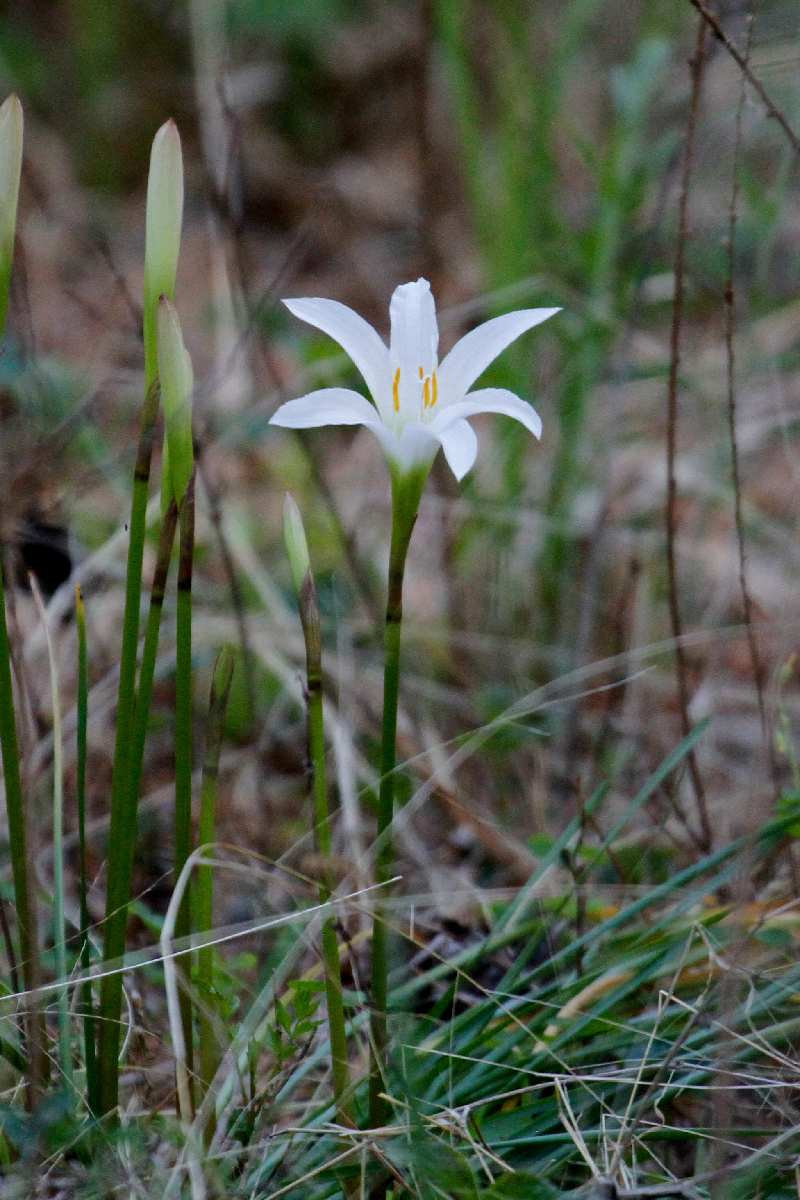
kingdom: Plantae
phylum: Tracheophyta
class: Liliopsida
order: Asparagales
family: Amaryllidaceae
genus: Zephyranthes
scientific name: Zephyranthes atamasco
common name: Atamasco lily
